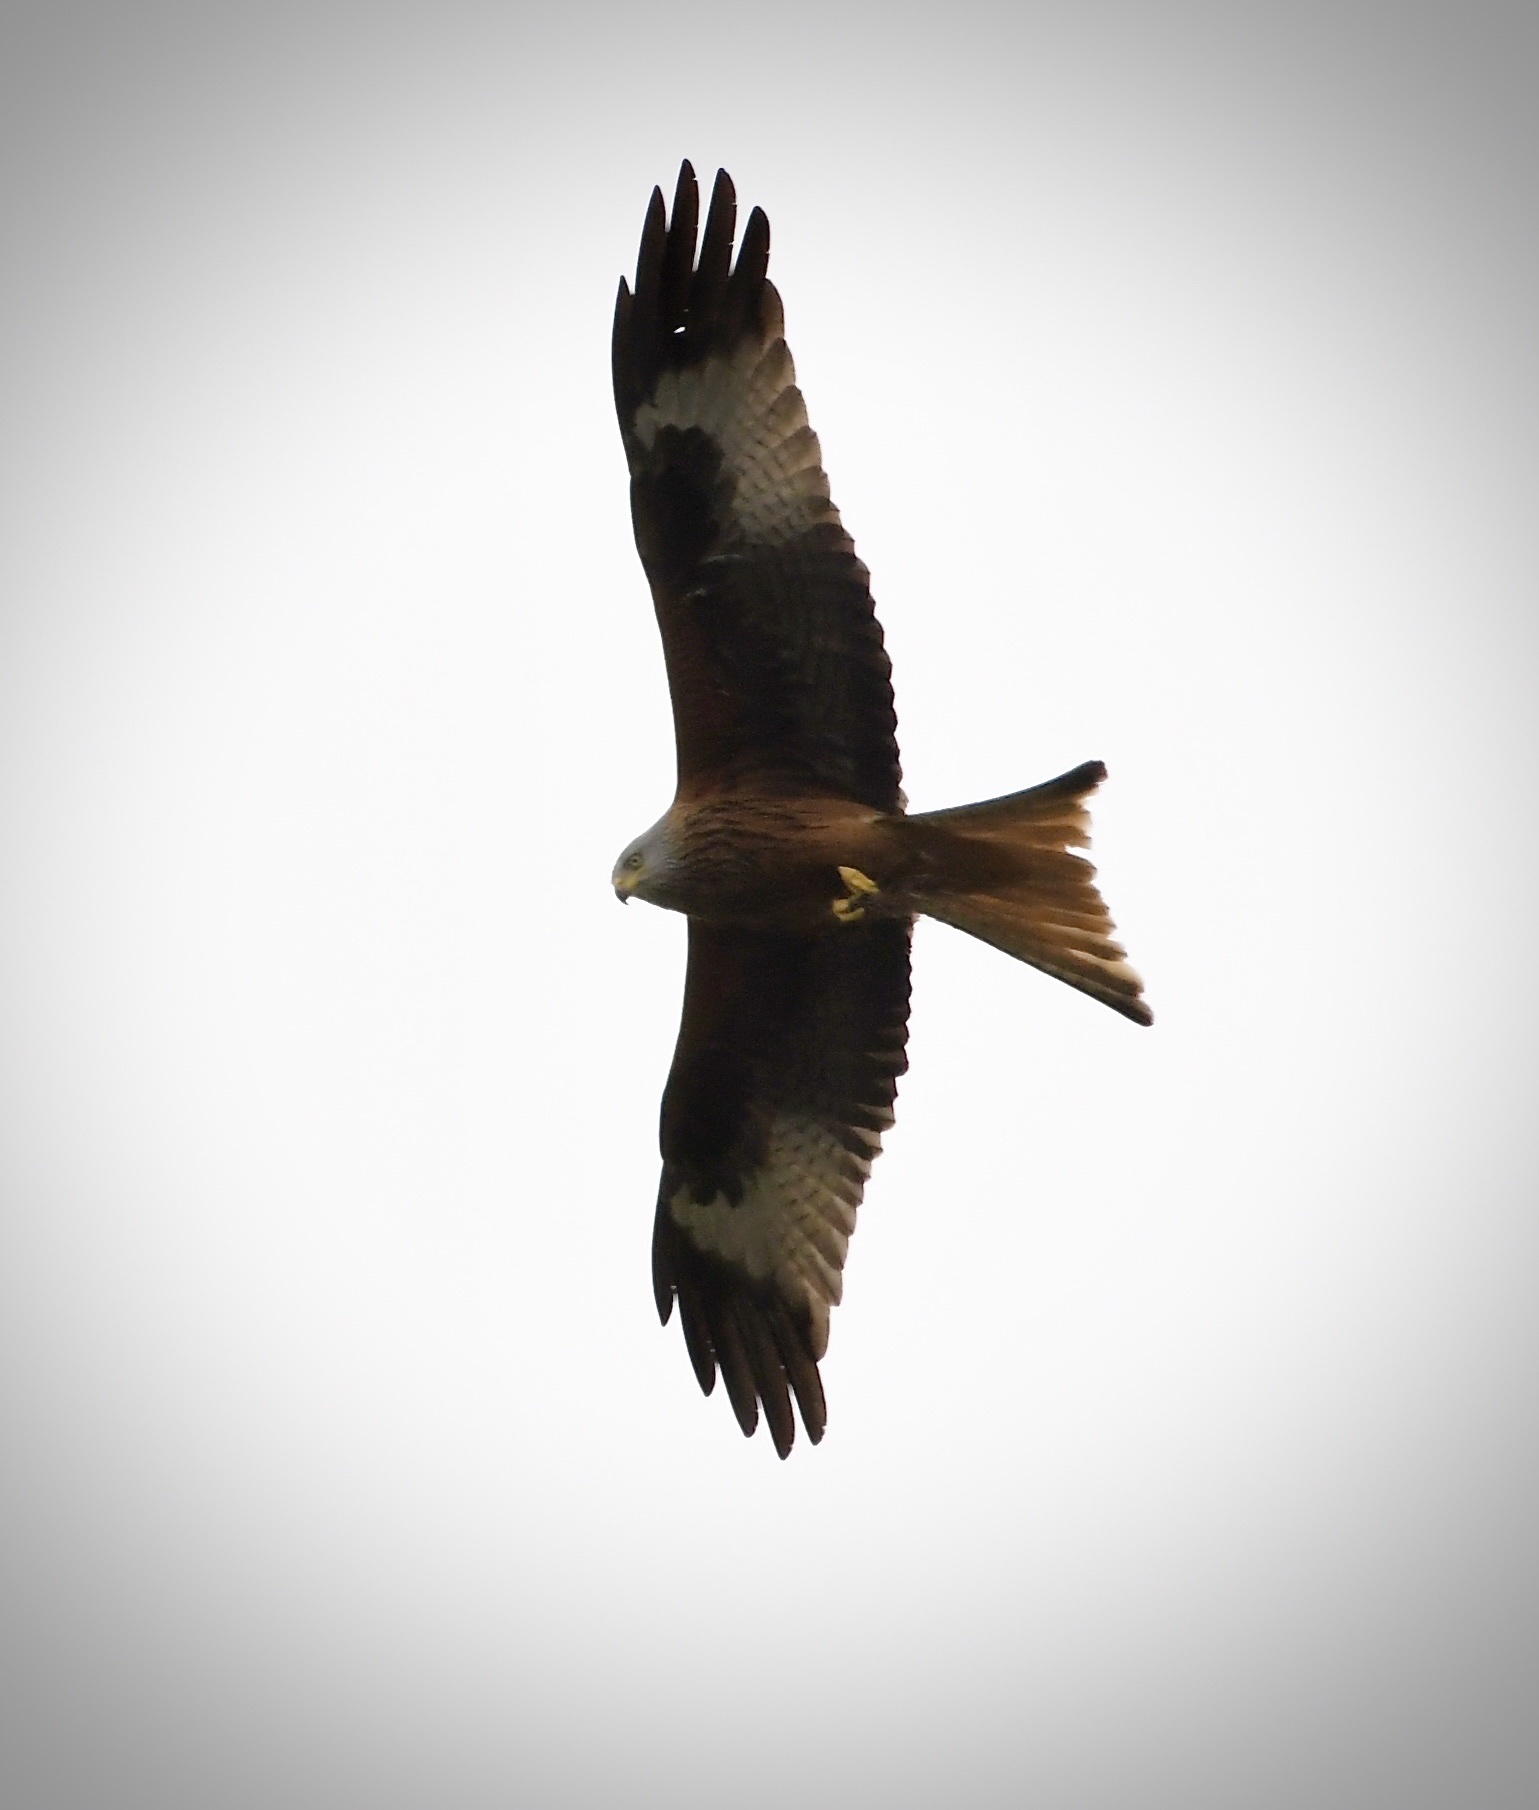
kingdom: Animalia
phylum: Chordata
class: Aves
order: Accipitriformes
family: Accipitridae
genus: Milvus
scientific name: Milvus milvus
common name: Red kite
